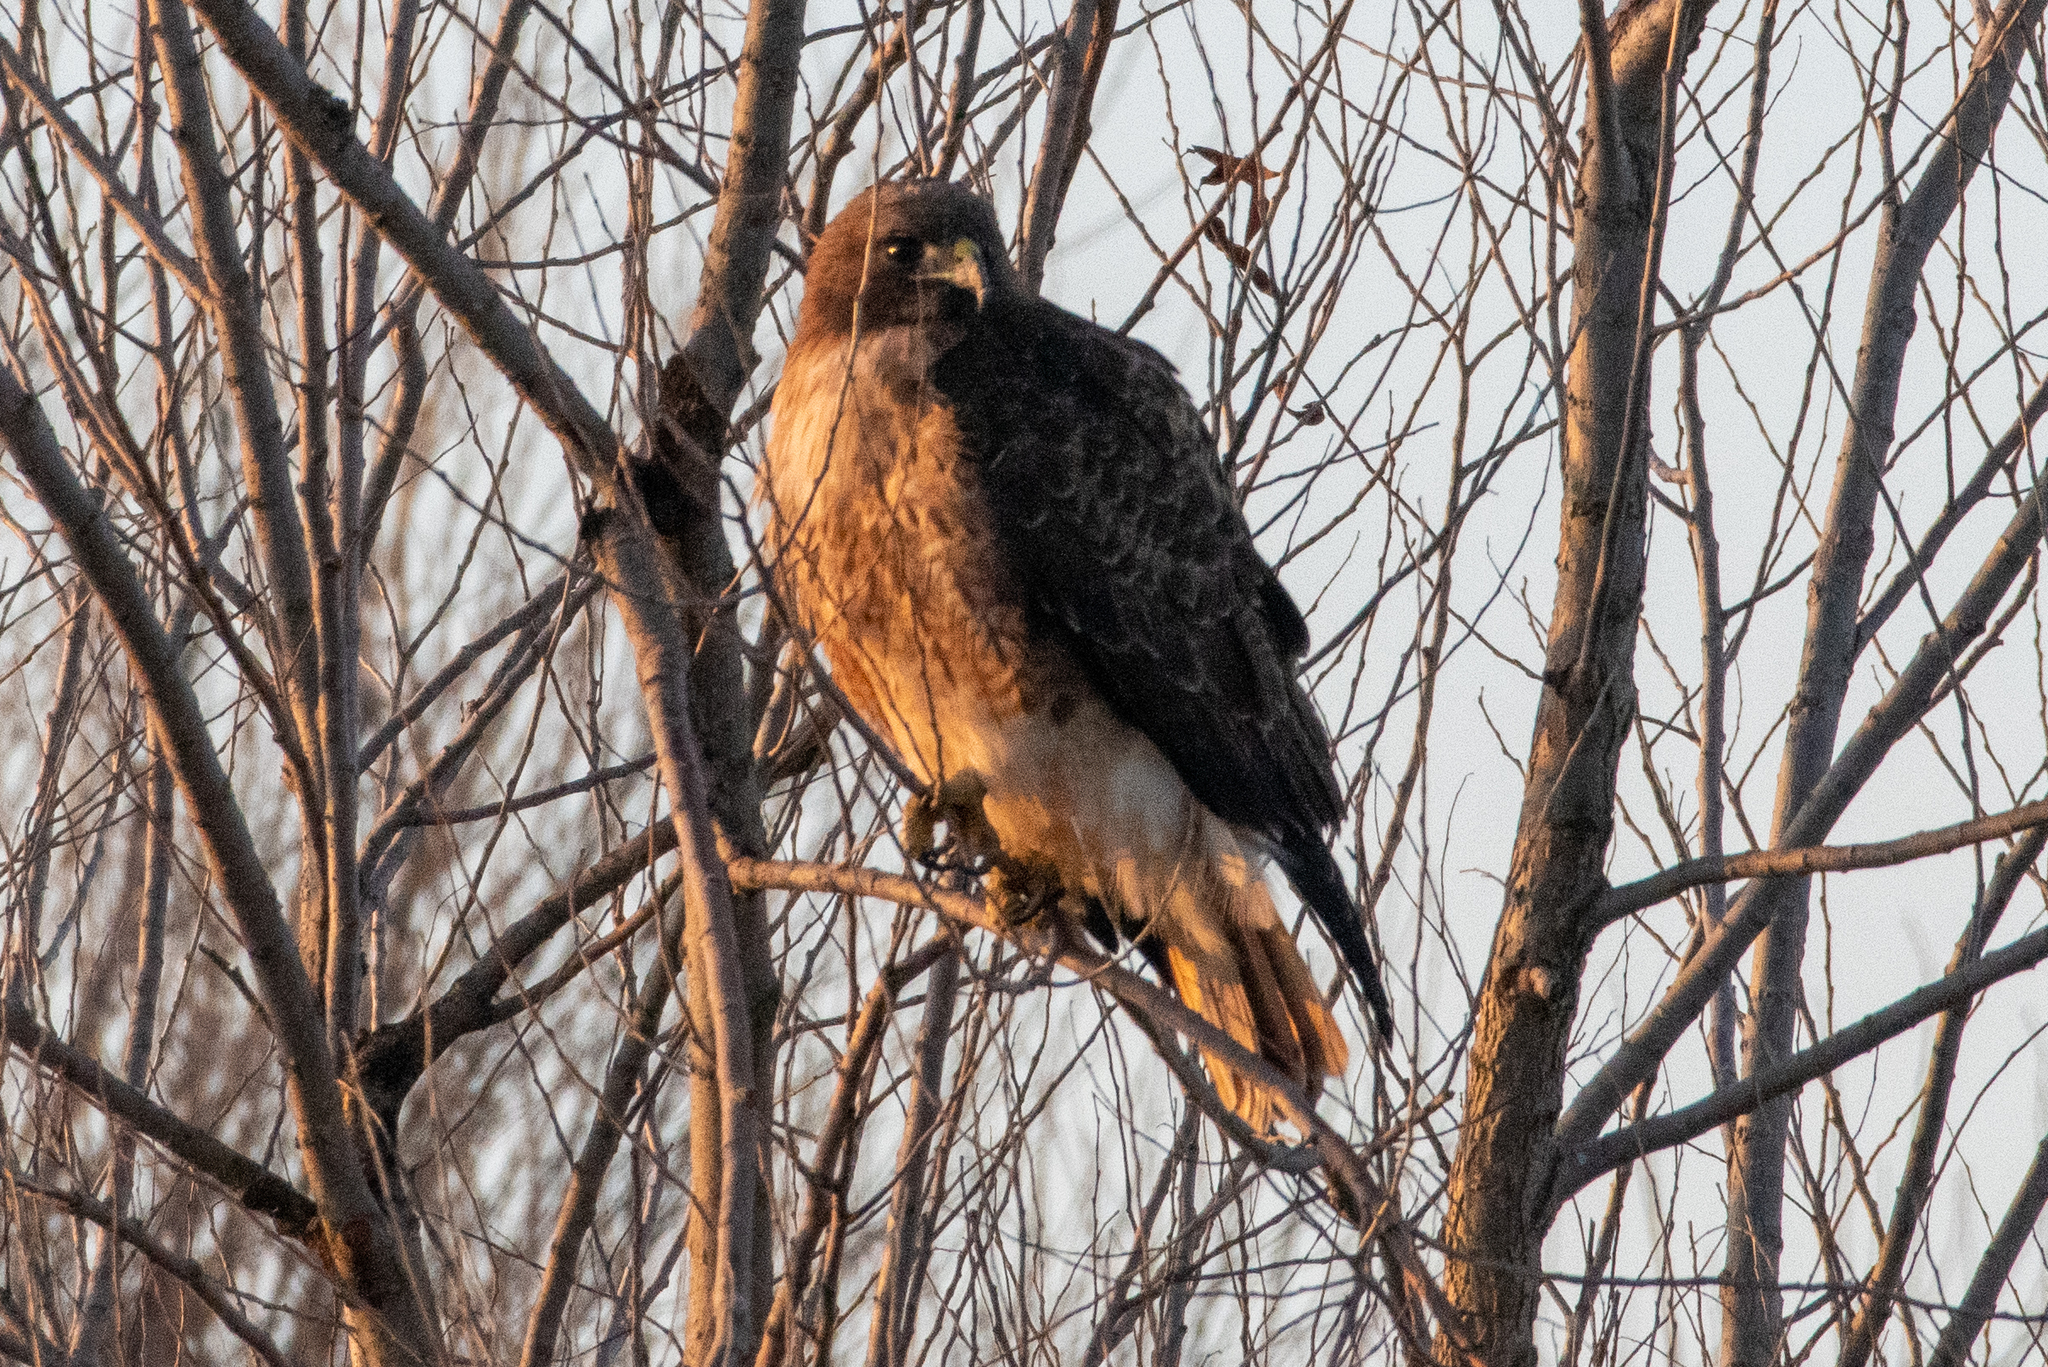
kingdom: Animalia
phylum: Chordata
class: Aves
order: Accipitriformes
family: Accipitridae
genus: Buteo
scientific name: Buteo jamaicensis
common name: Red-tailed hawk
